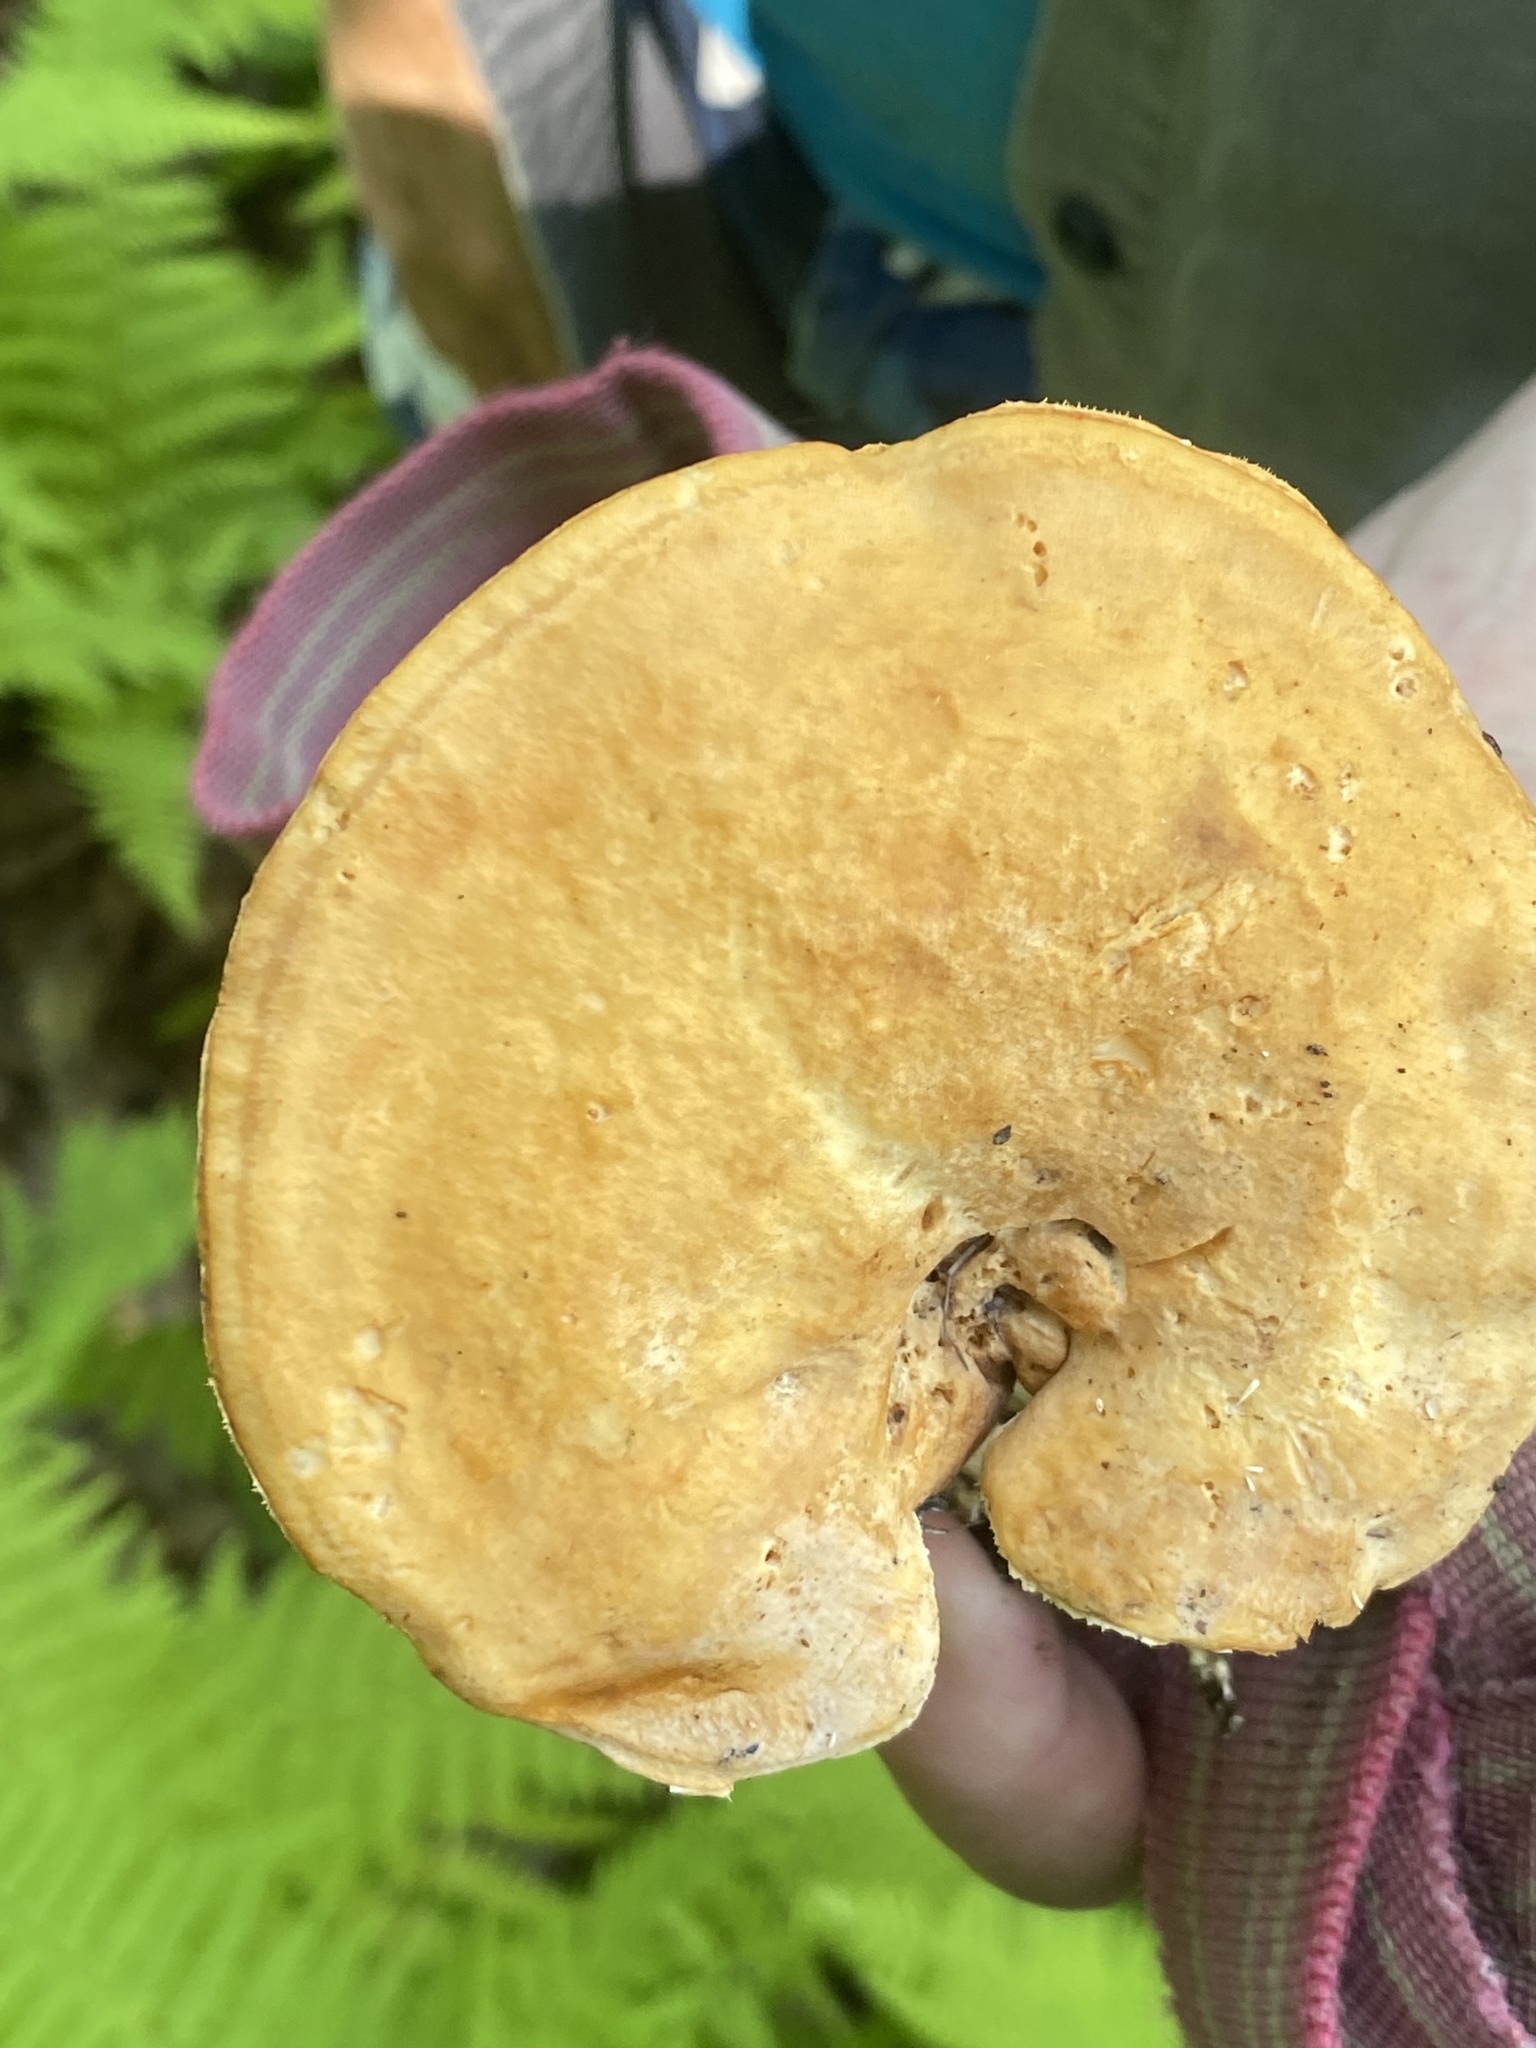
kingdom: Fungi
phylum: Basidiomycota
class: Agaricomycetes
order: Cantharellales
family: Hydnaceae
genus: Hydnum
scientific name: Hydnum umbilicatum
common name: Umbilicate hedgehog
